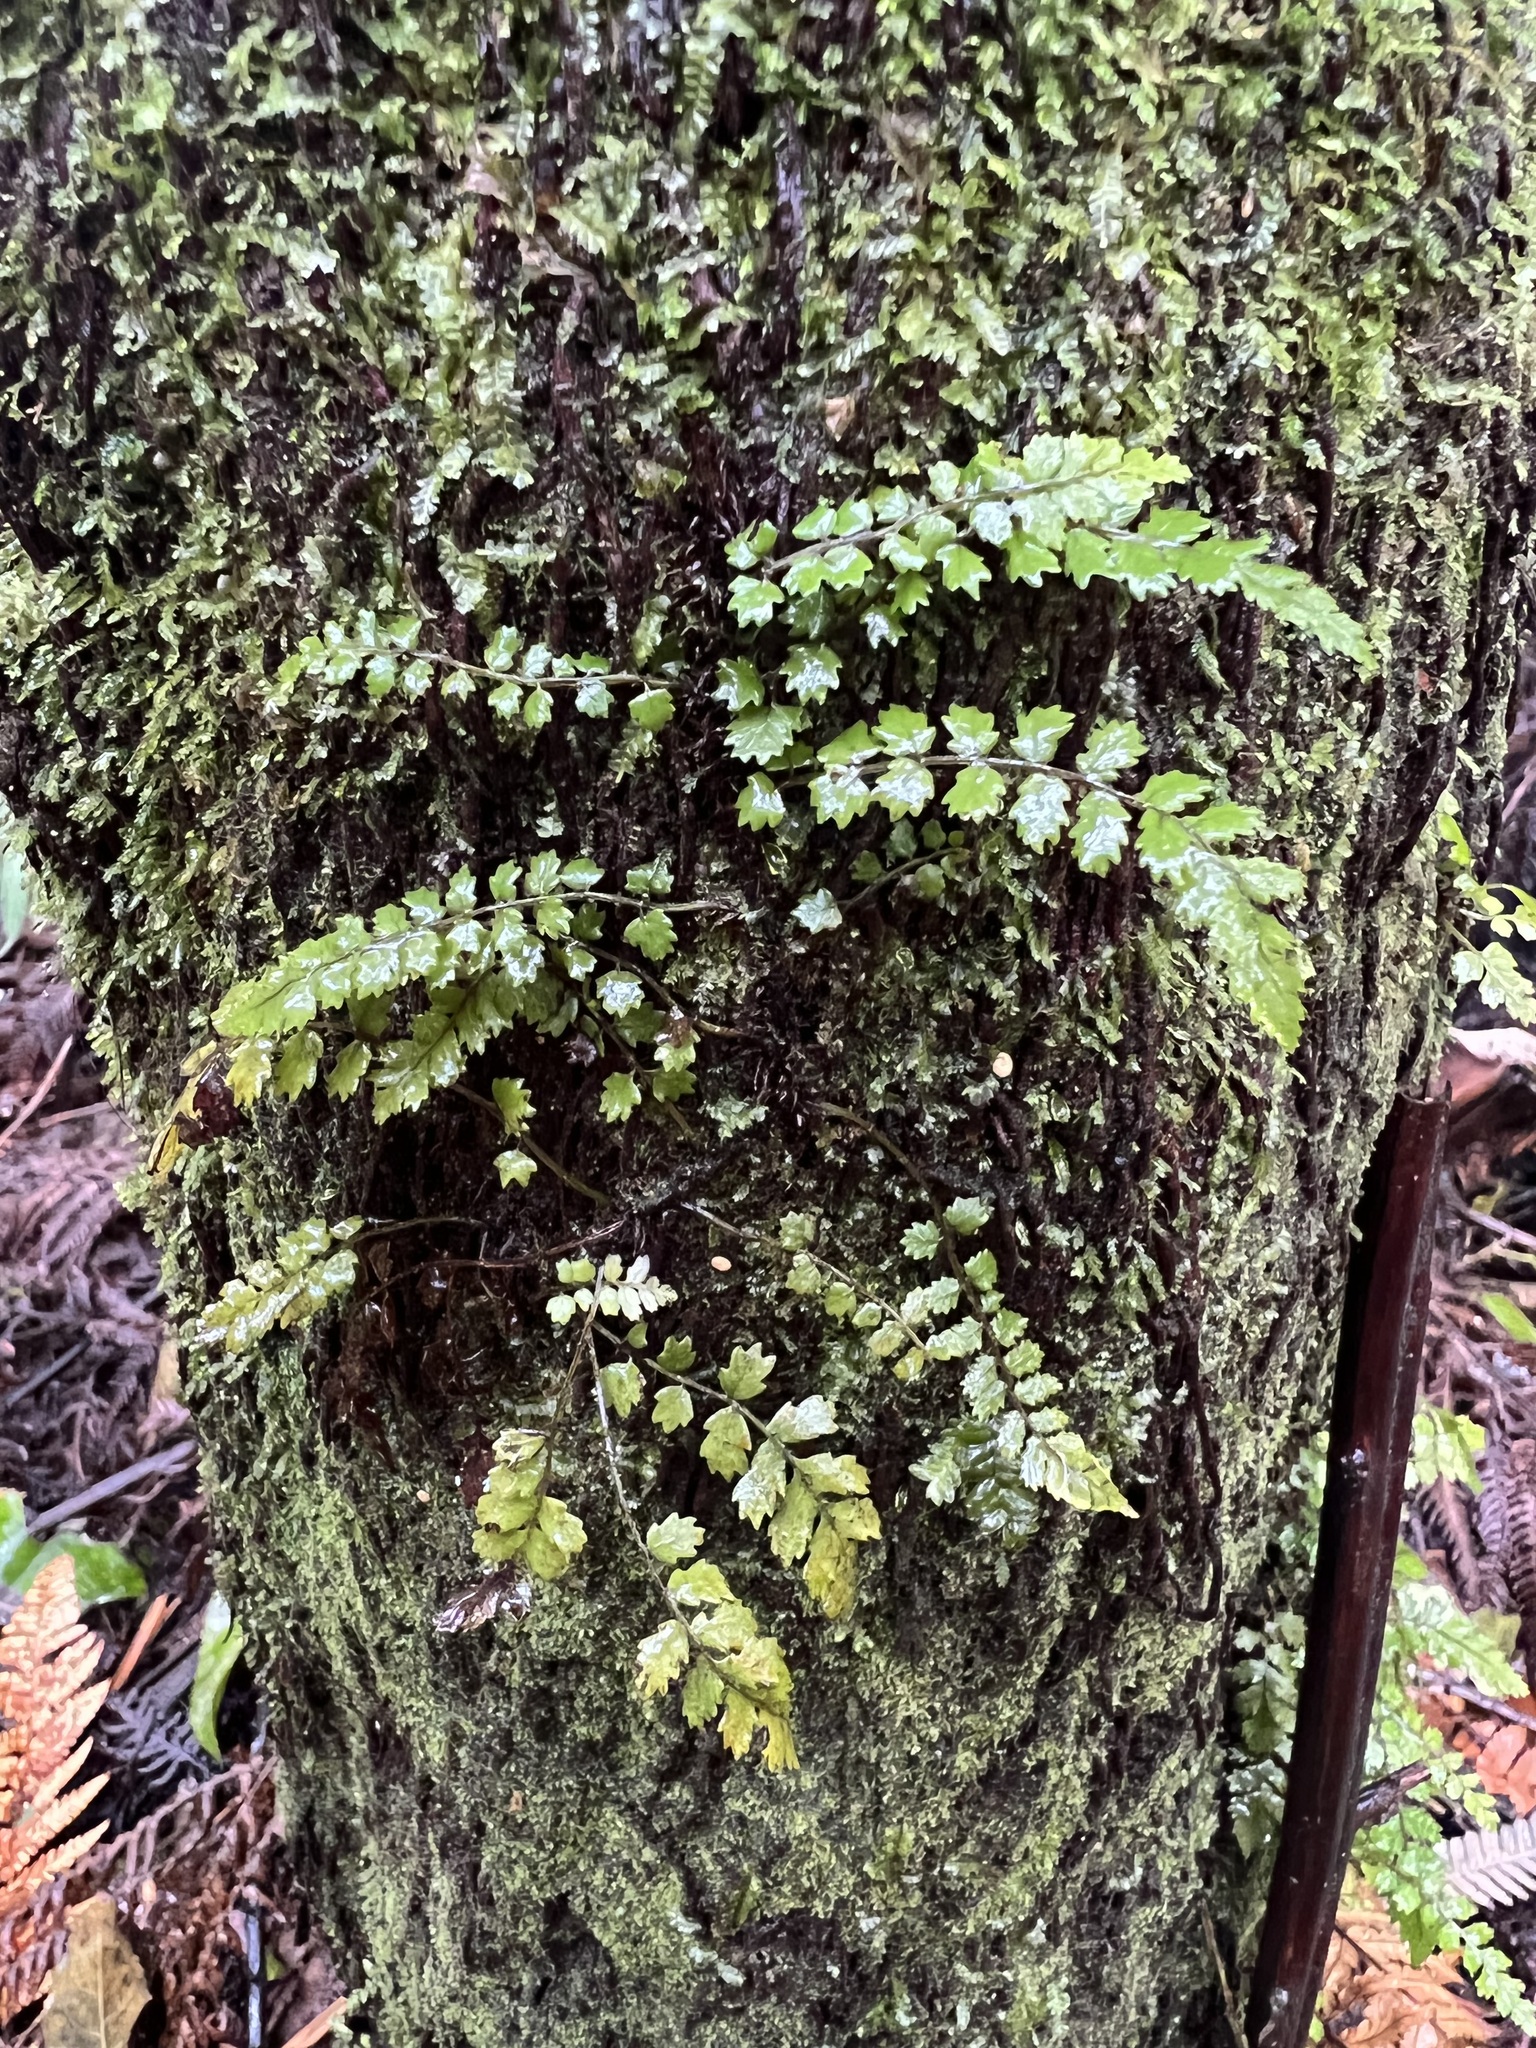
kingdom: Plantae
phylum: Tracheophyta
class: Polypodiopsida
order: Polypodiales
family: Blechnaceae
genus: Icarus
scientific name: Icarus filiformis
